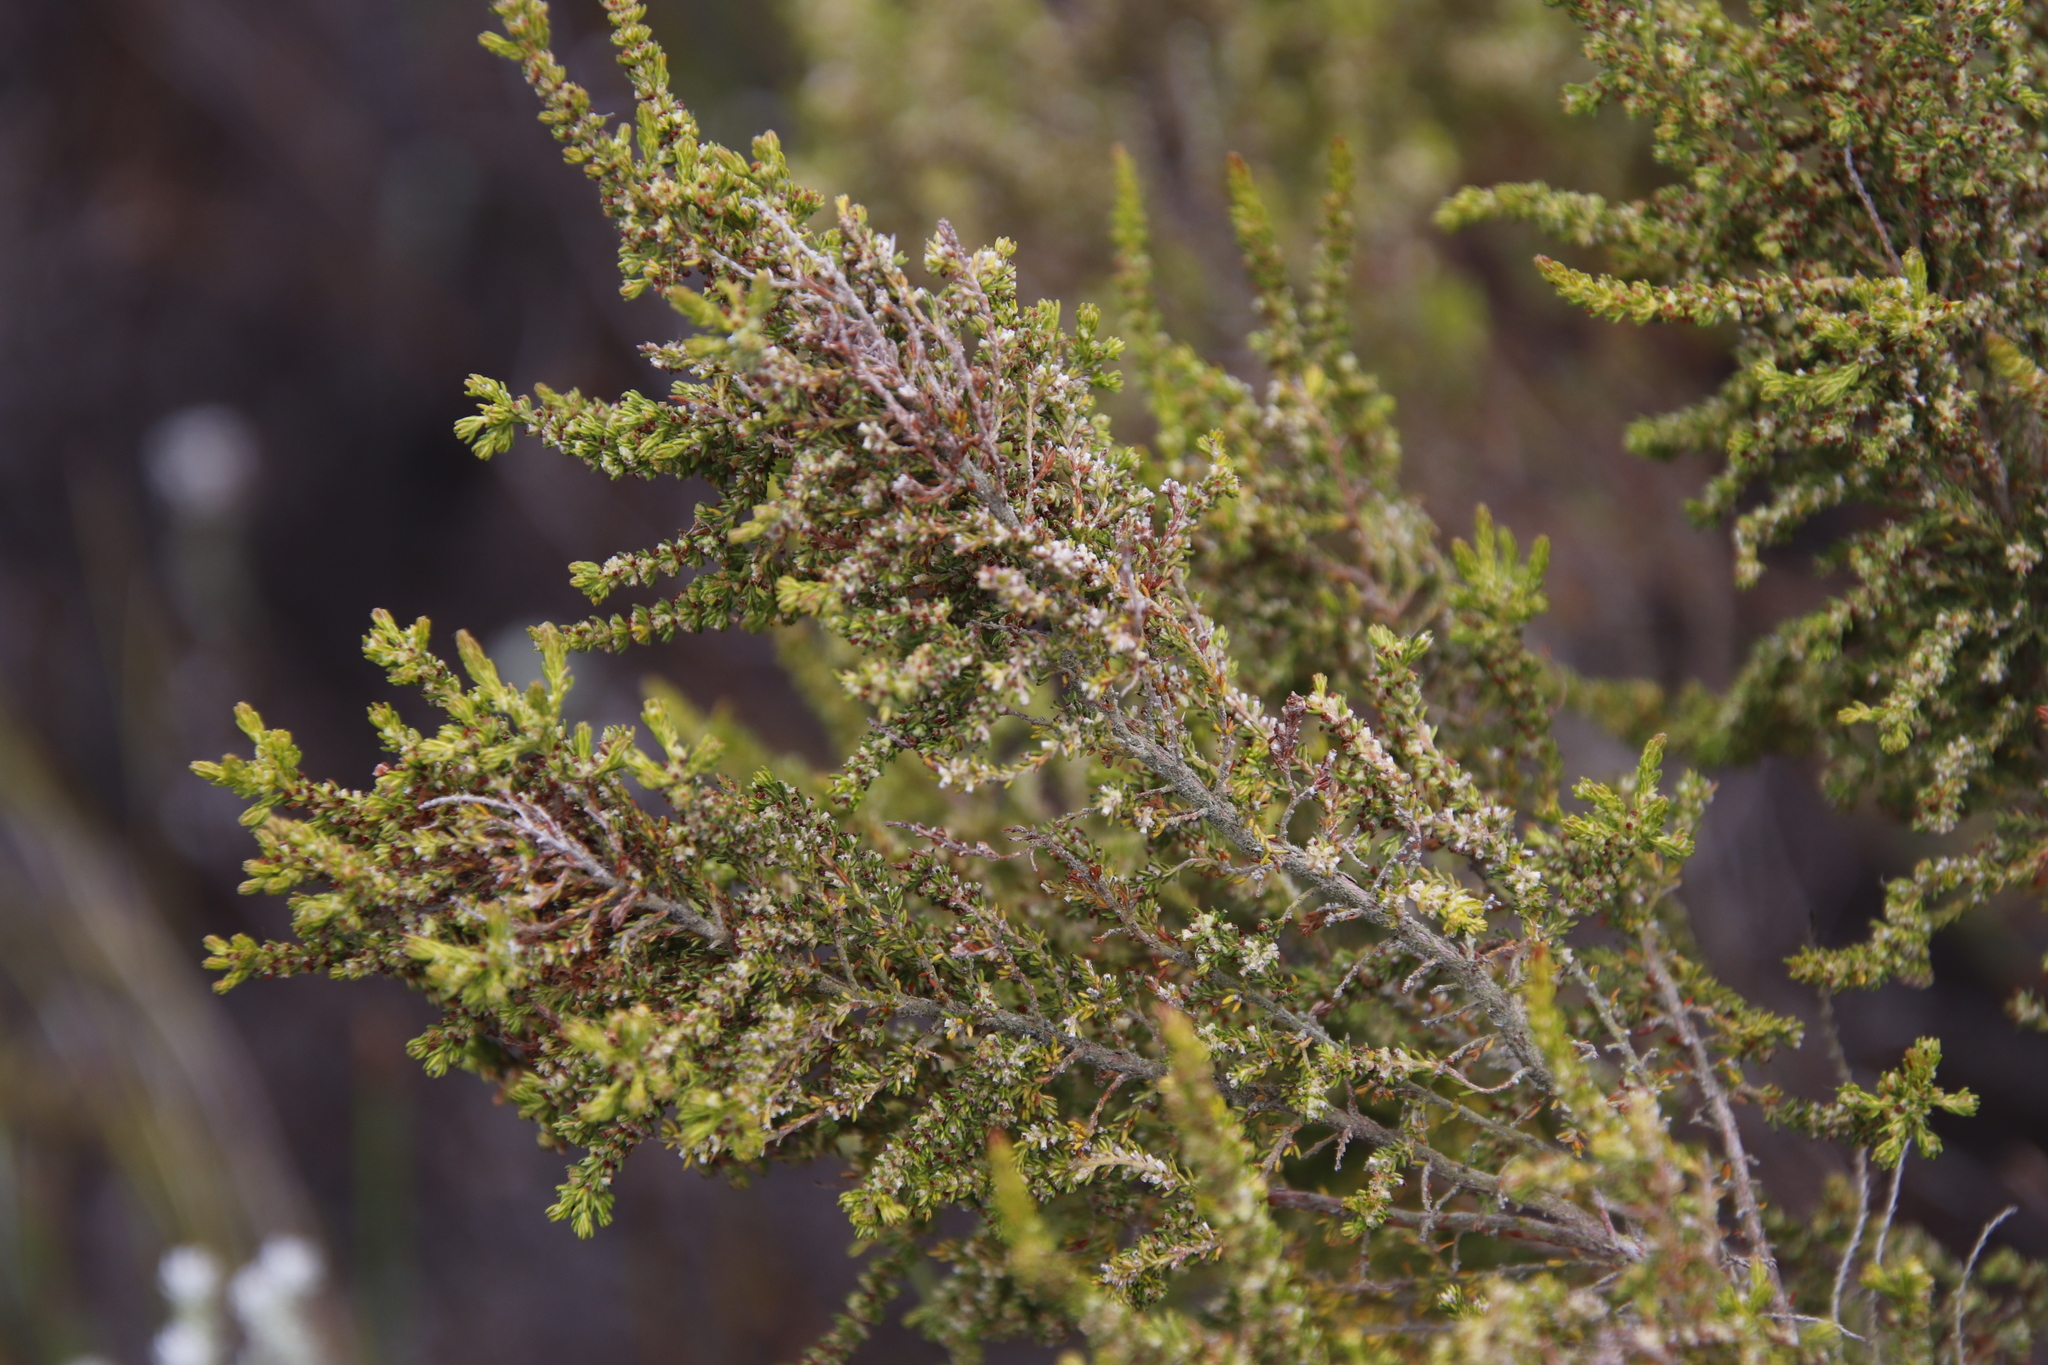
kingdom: Plantae
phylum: Tracheophyta
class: Magnoliopsida
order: Ericales
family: Ericaceae
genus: Erica
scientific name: Erica axillaris
